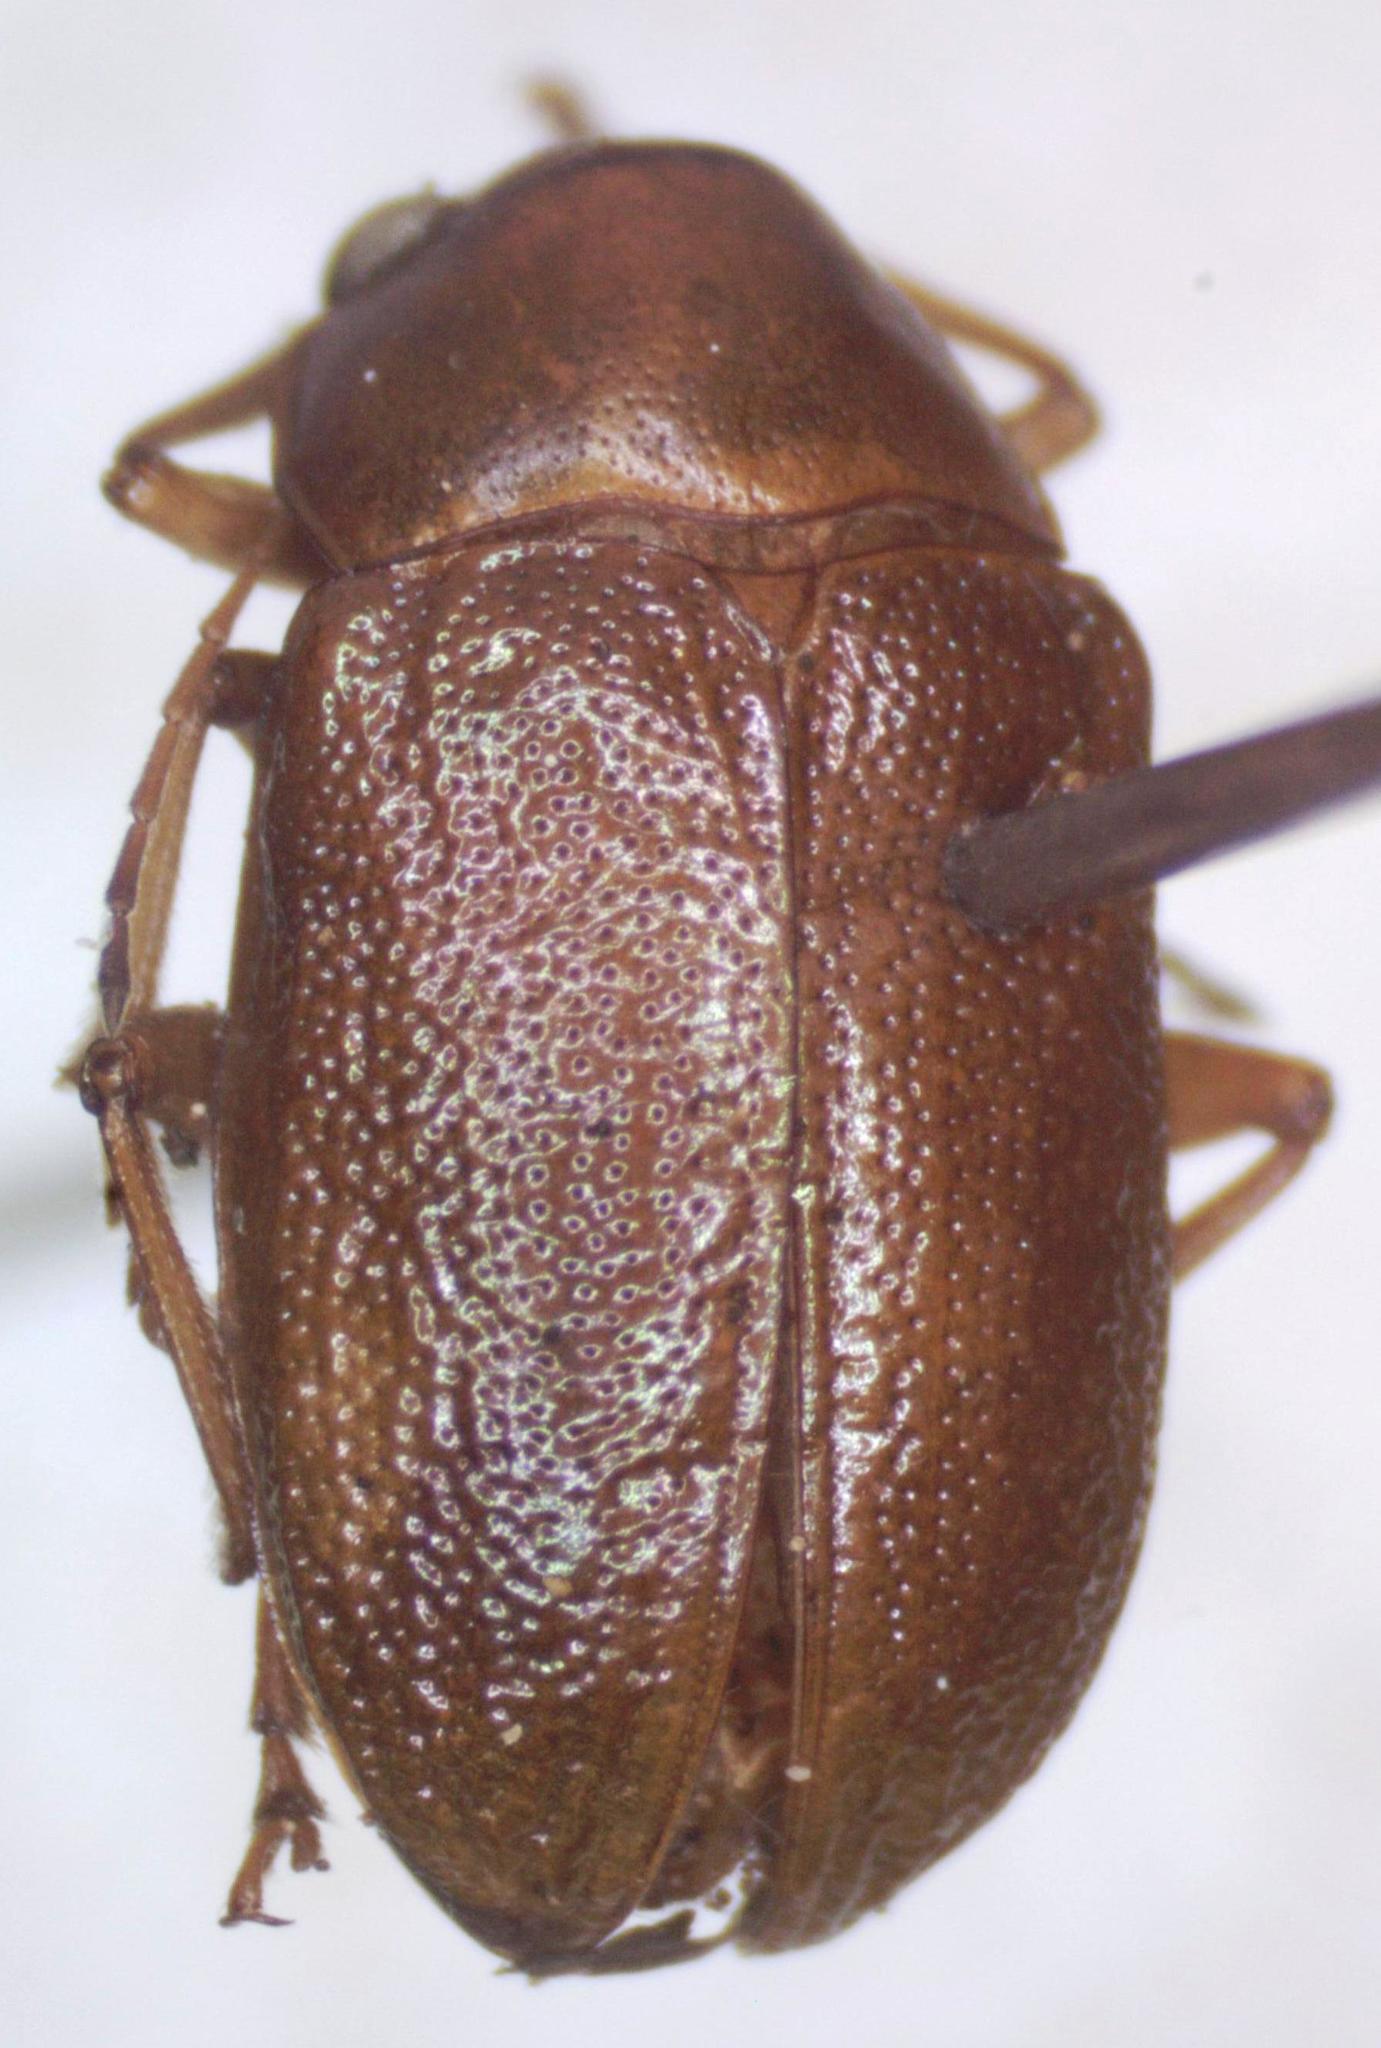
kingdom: Animalia
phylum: Arthropoda
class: Insecta
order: Coleoptera
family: Chrysomelidae
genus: Talurus
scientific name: Talurus
